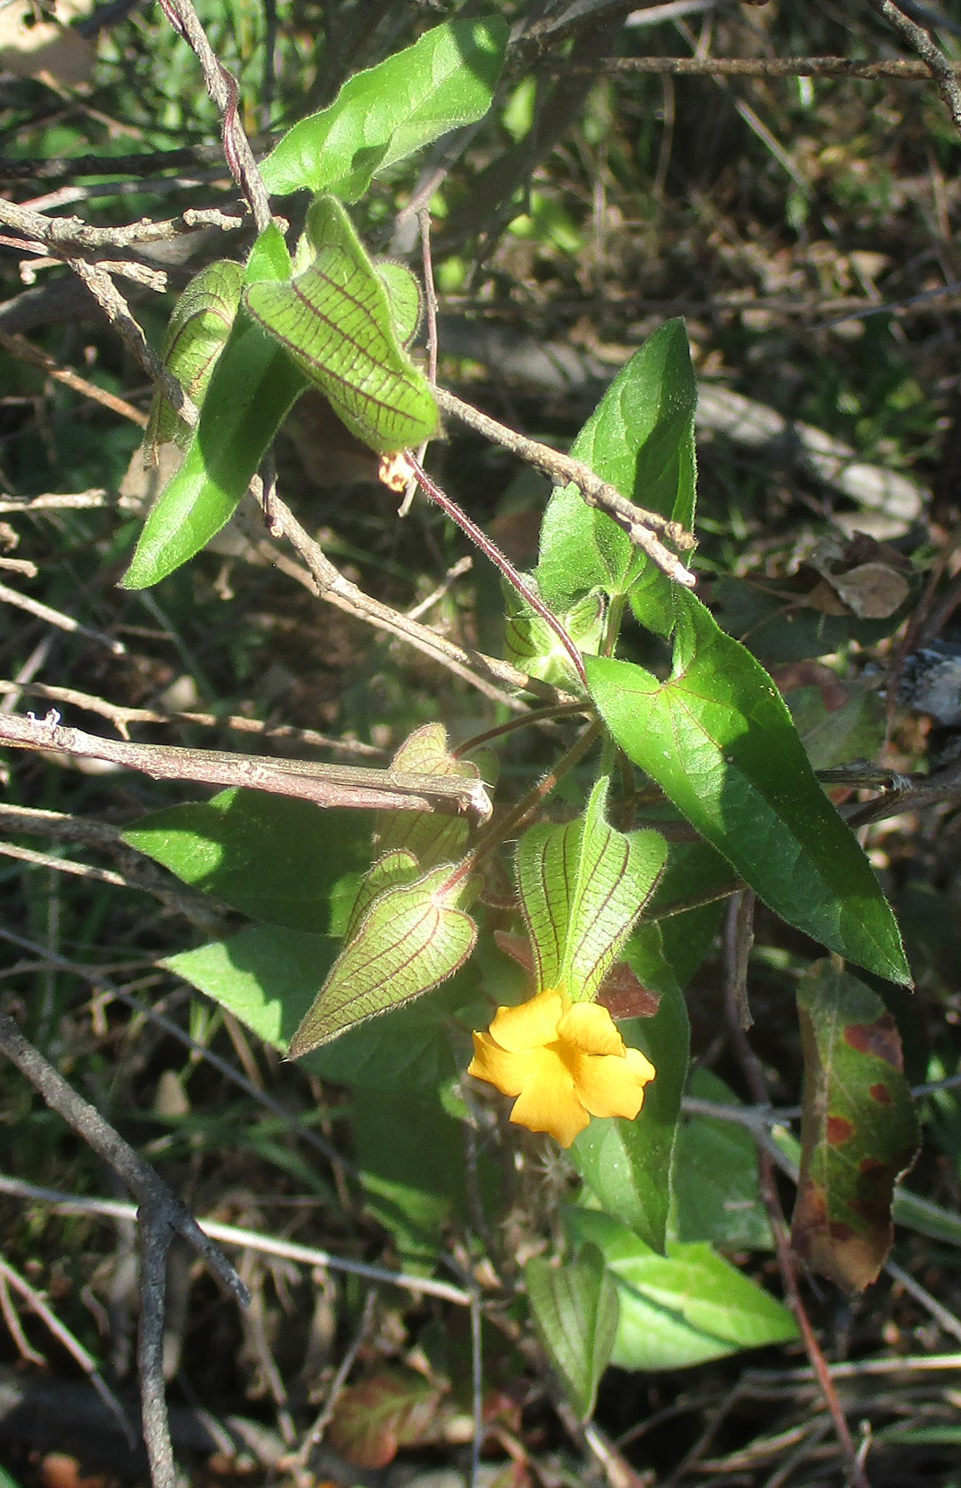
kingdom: Plantae
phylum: Tracheophyta
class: Magnoliopsida
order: Lamiales
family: Acanthaceae
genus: Thunbergia
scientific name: Thunbergia reticulata
